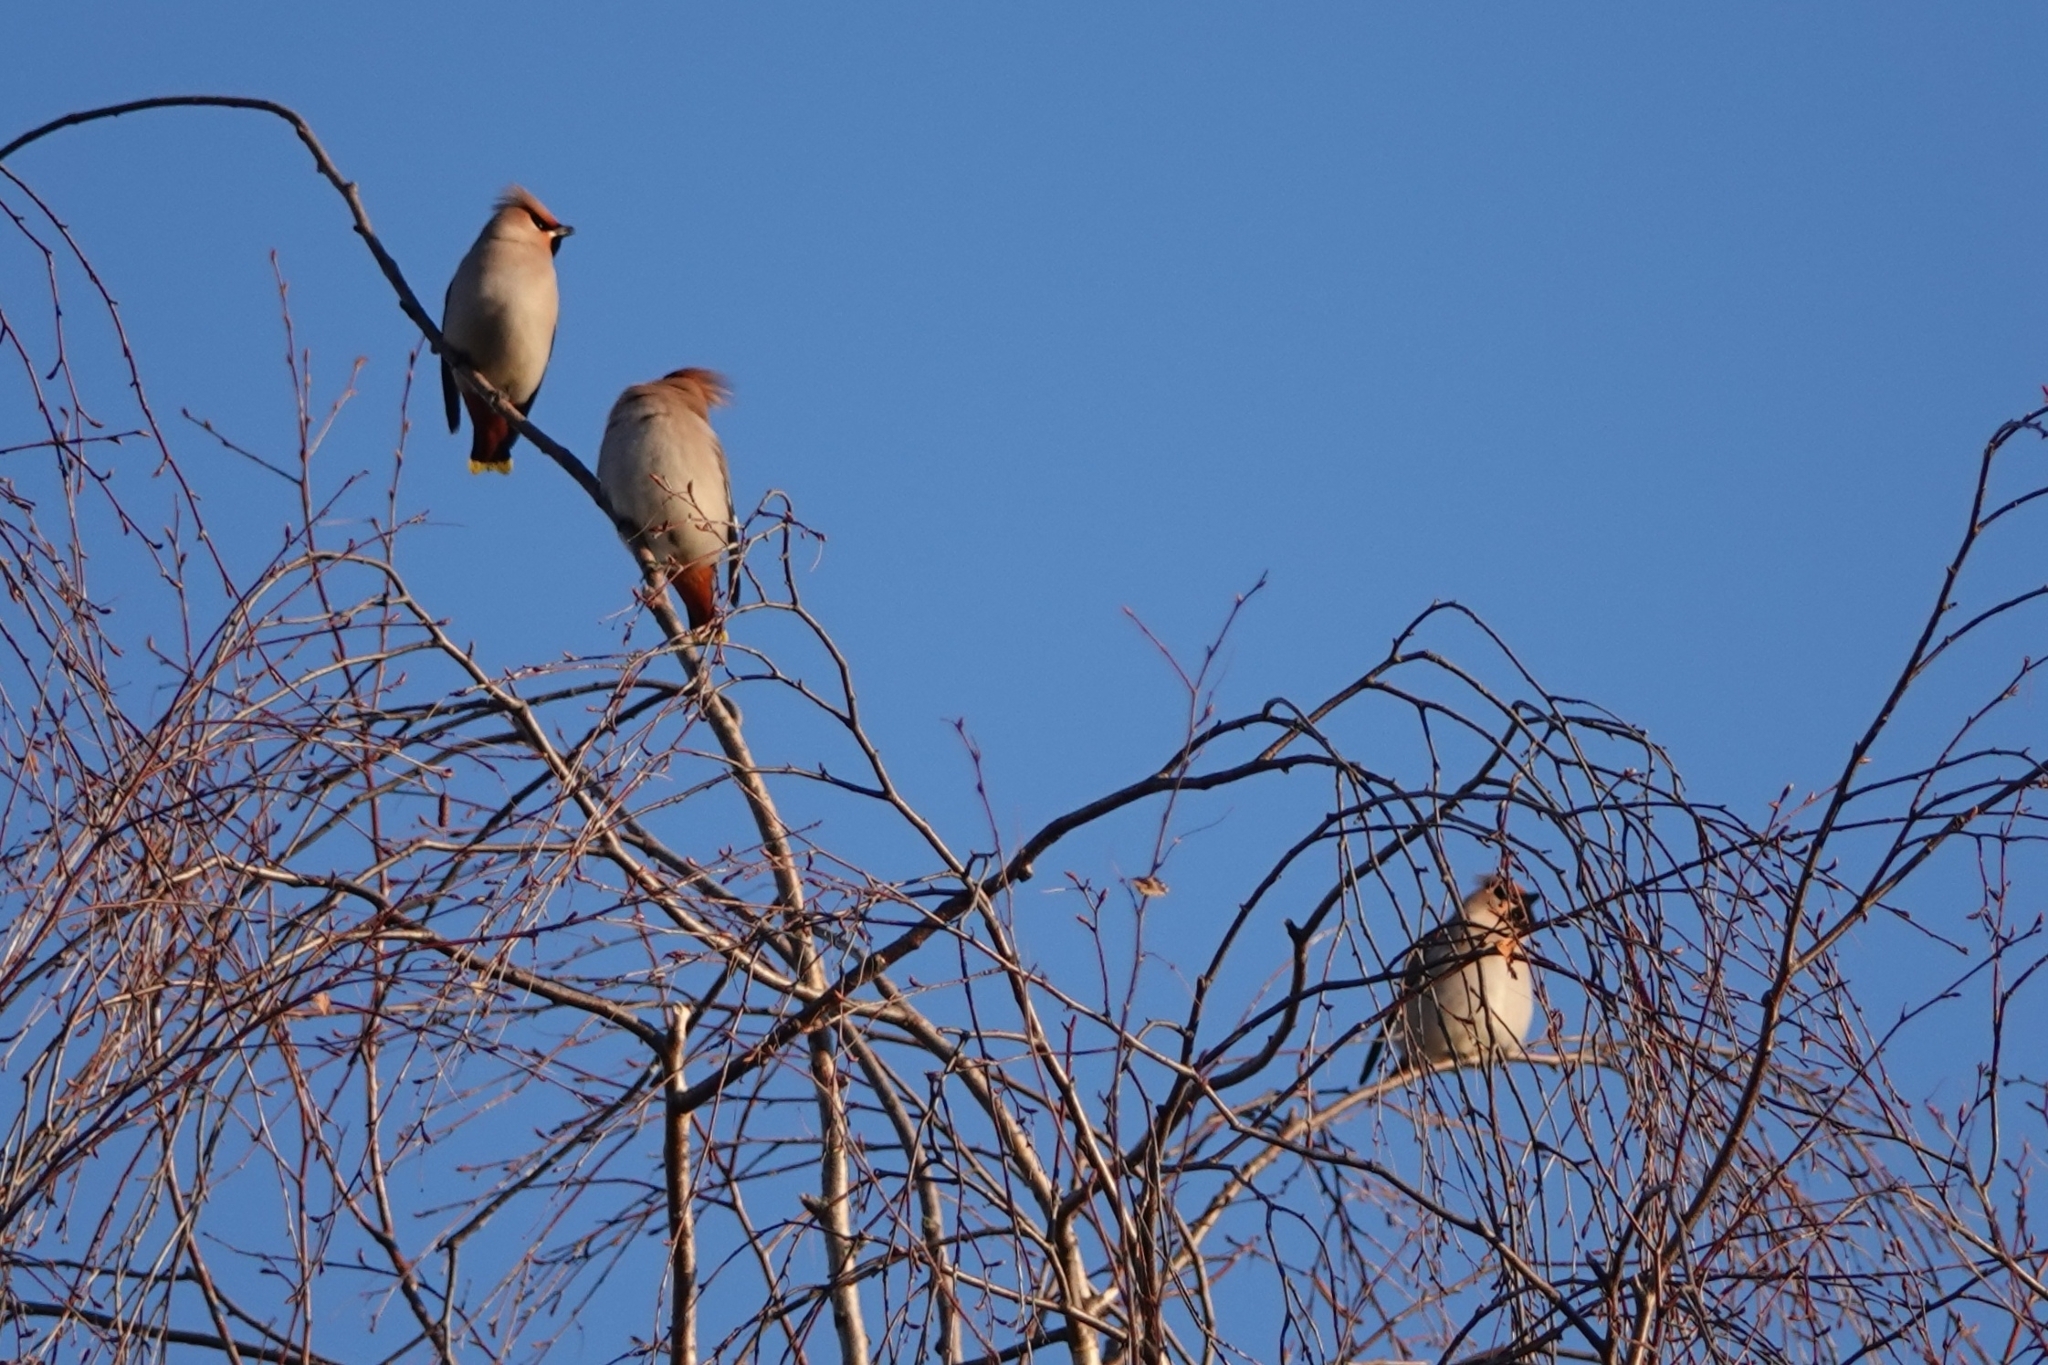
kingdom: Animalia
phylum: Chordata
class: Aves
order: Passeriformes
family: Bombycillidae
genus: Bombycilla
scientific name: Bombycilla garrulus
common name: Bohemian waxwing
